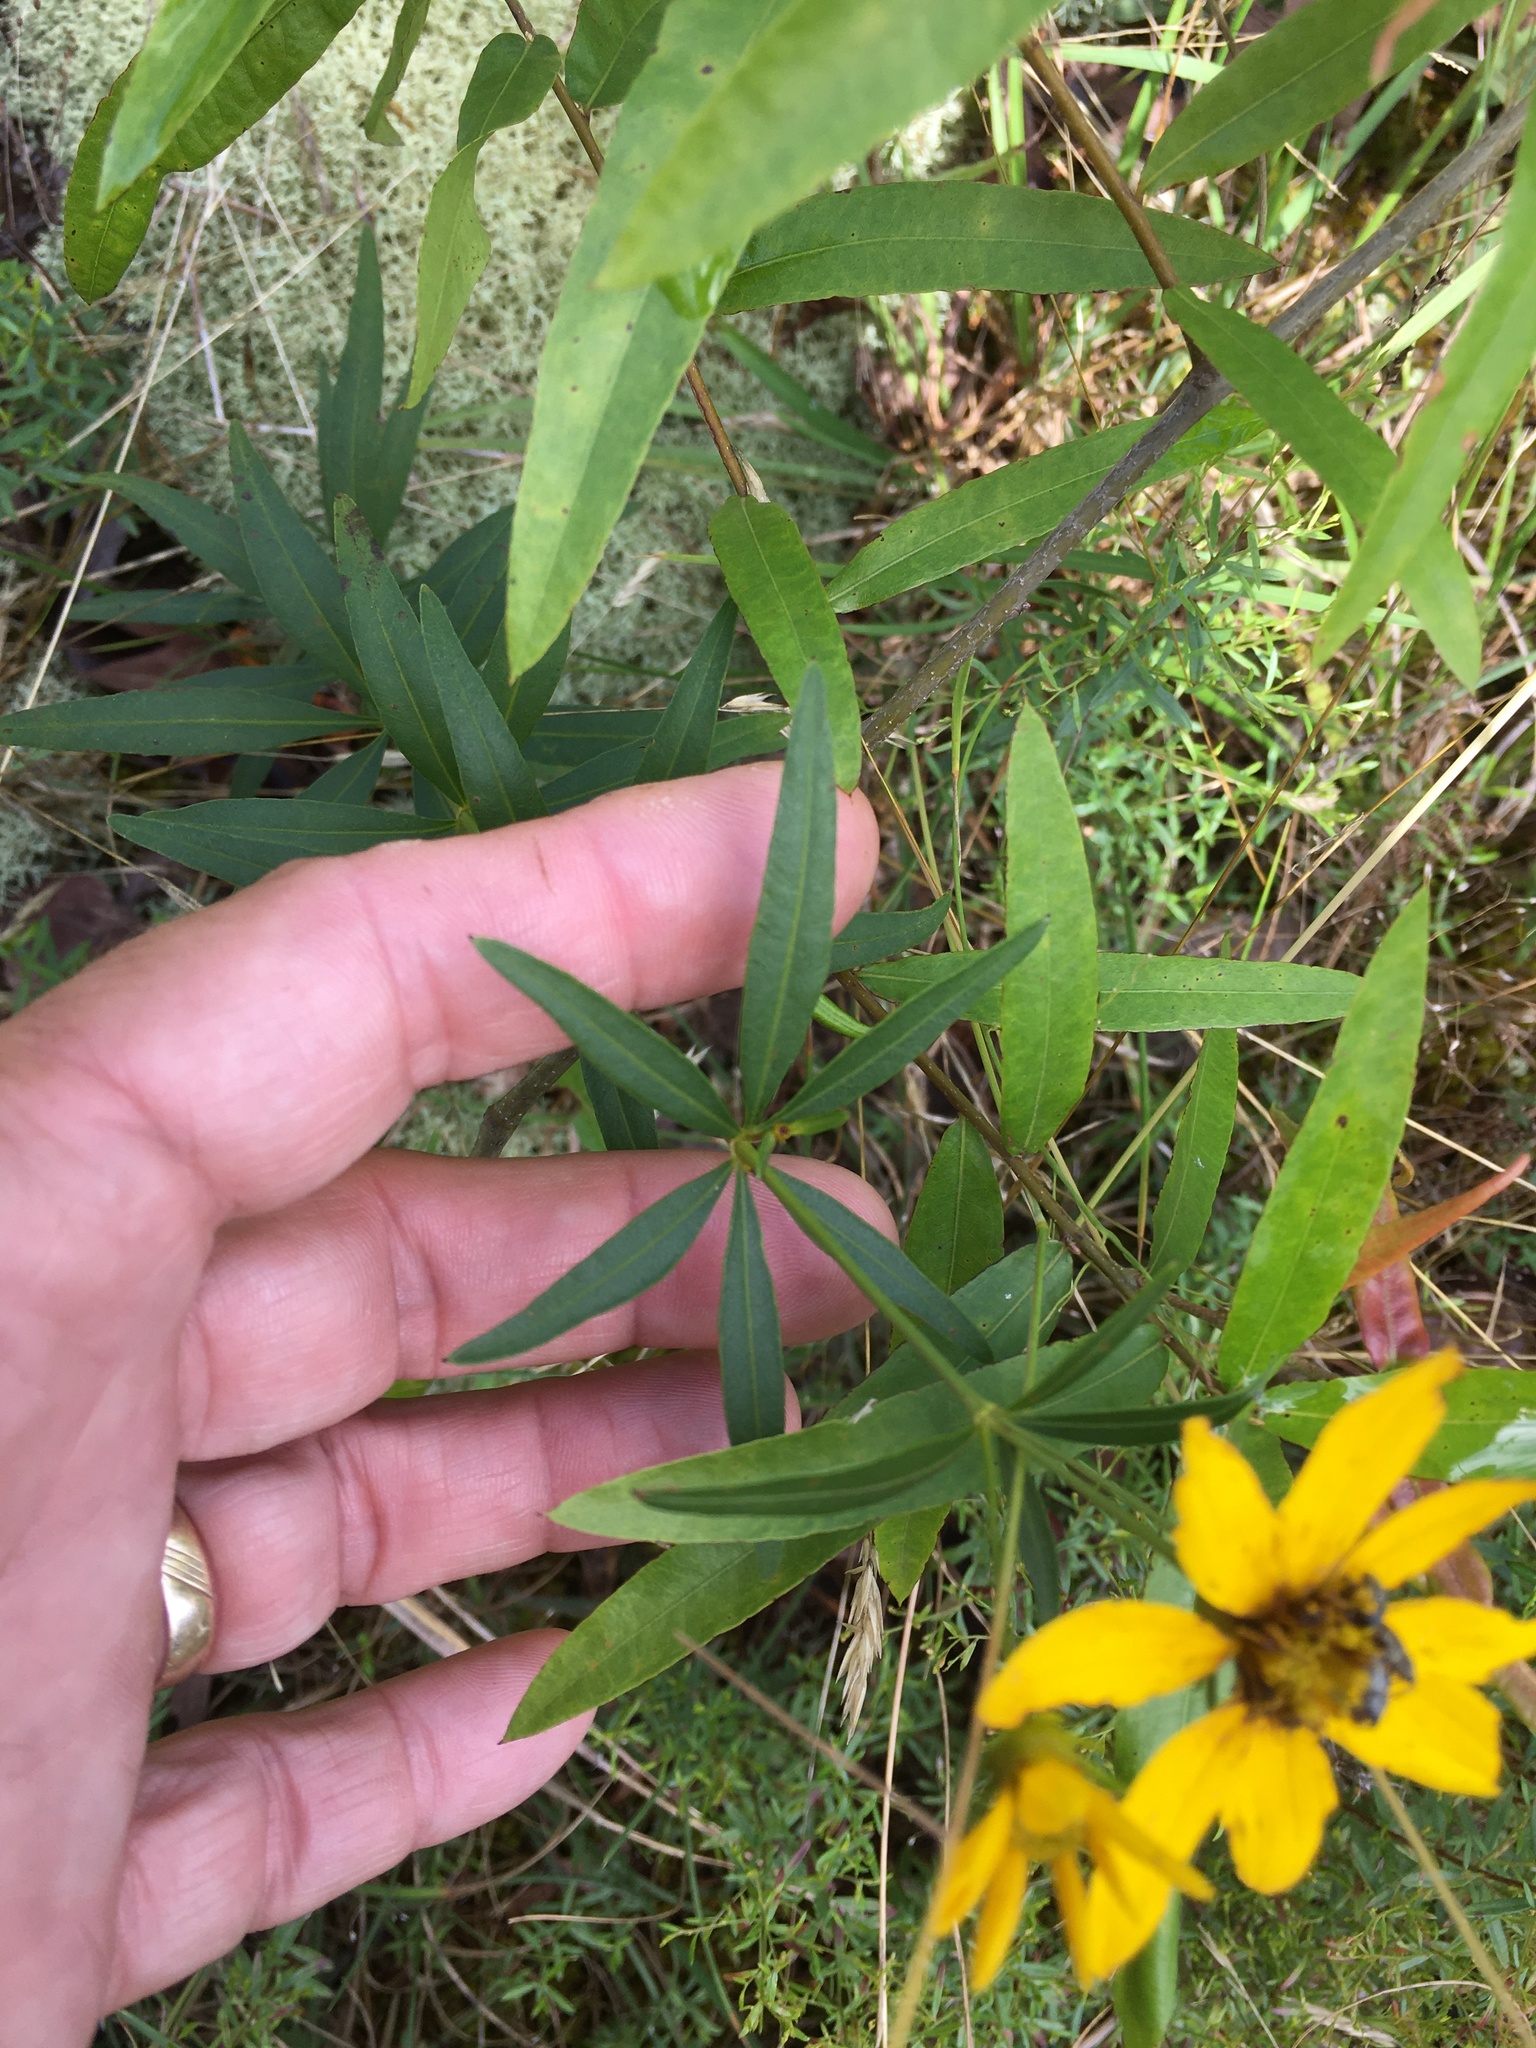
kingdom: Plantae
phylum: Tracheophyta
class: Magnoliopsida
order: Asterales
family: Asteraceae
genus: Coreopsis
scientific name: Coreopsis major
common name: Forest tickseed
